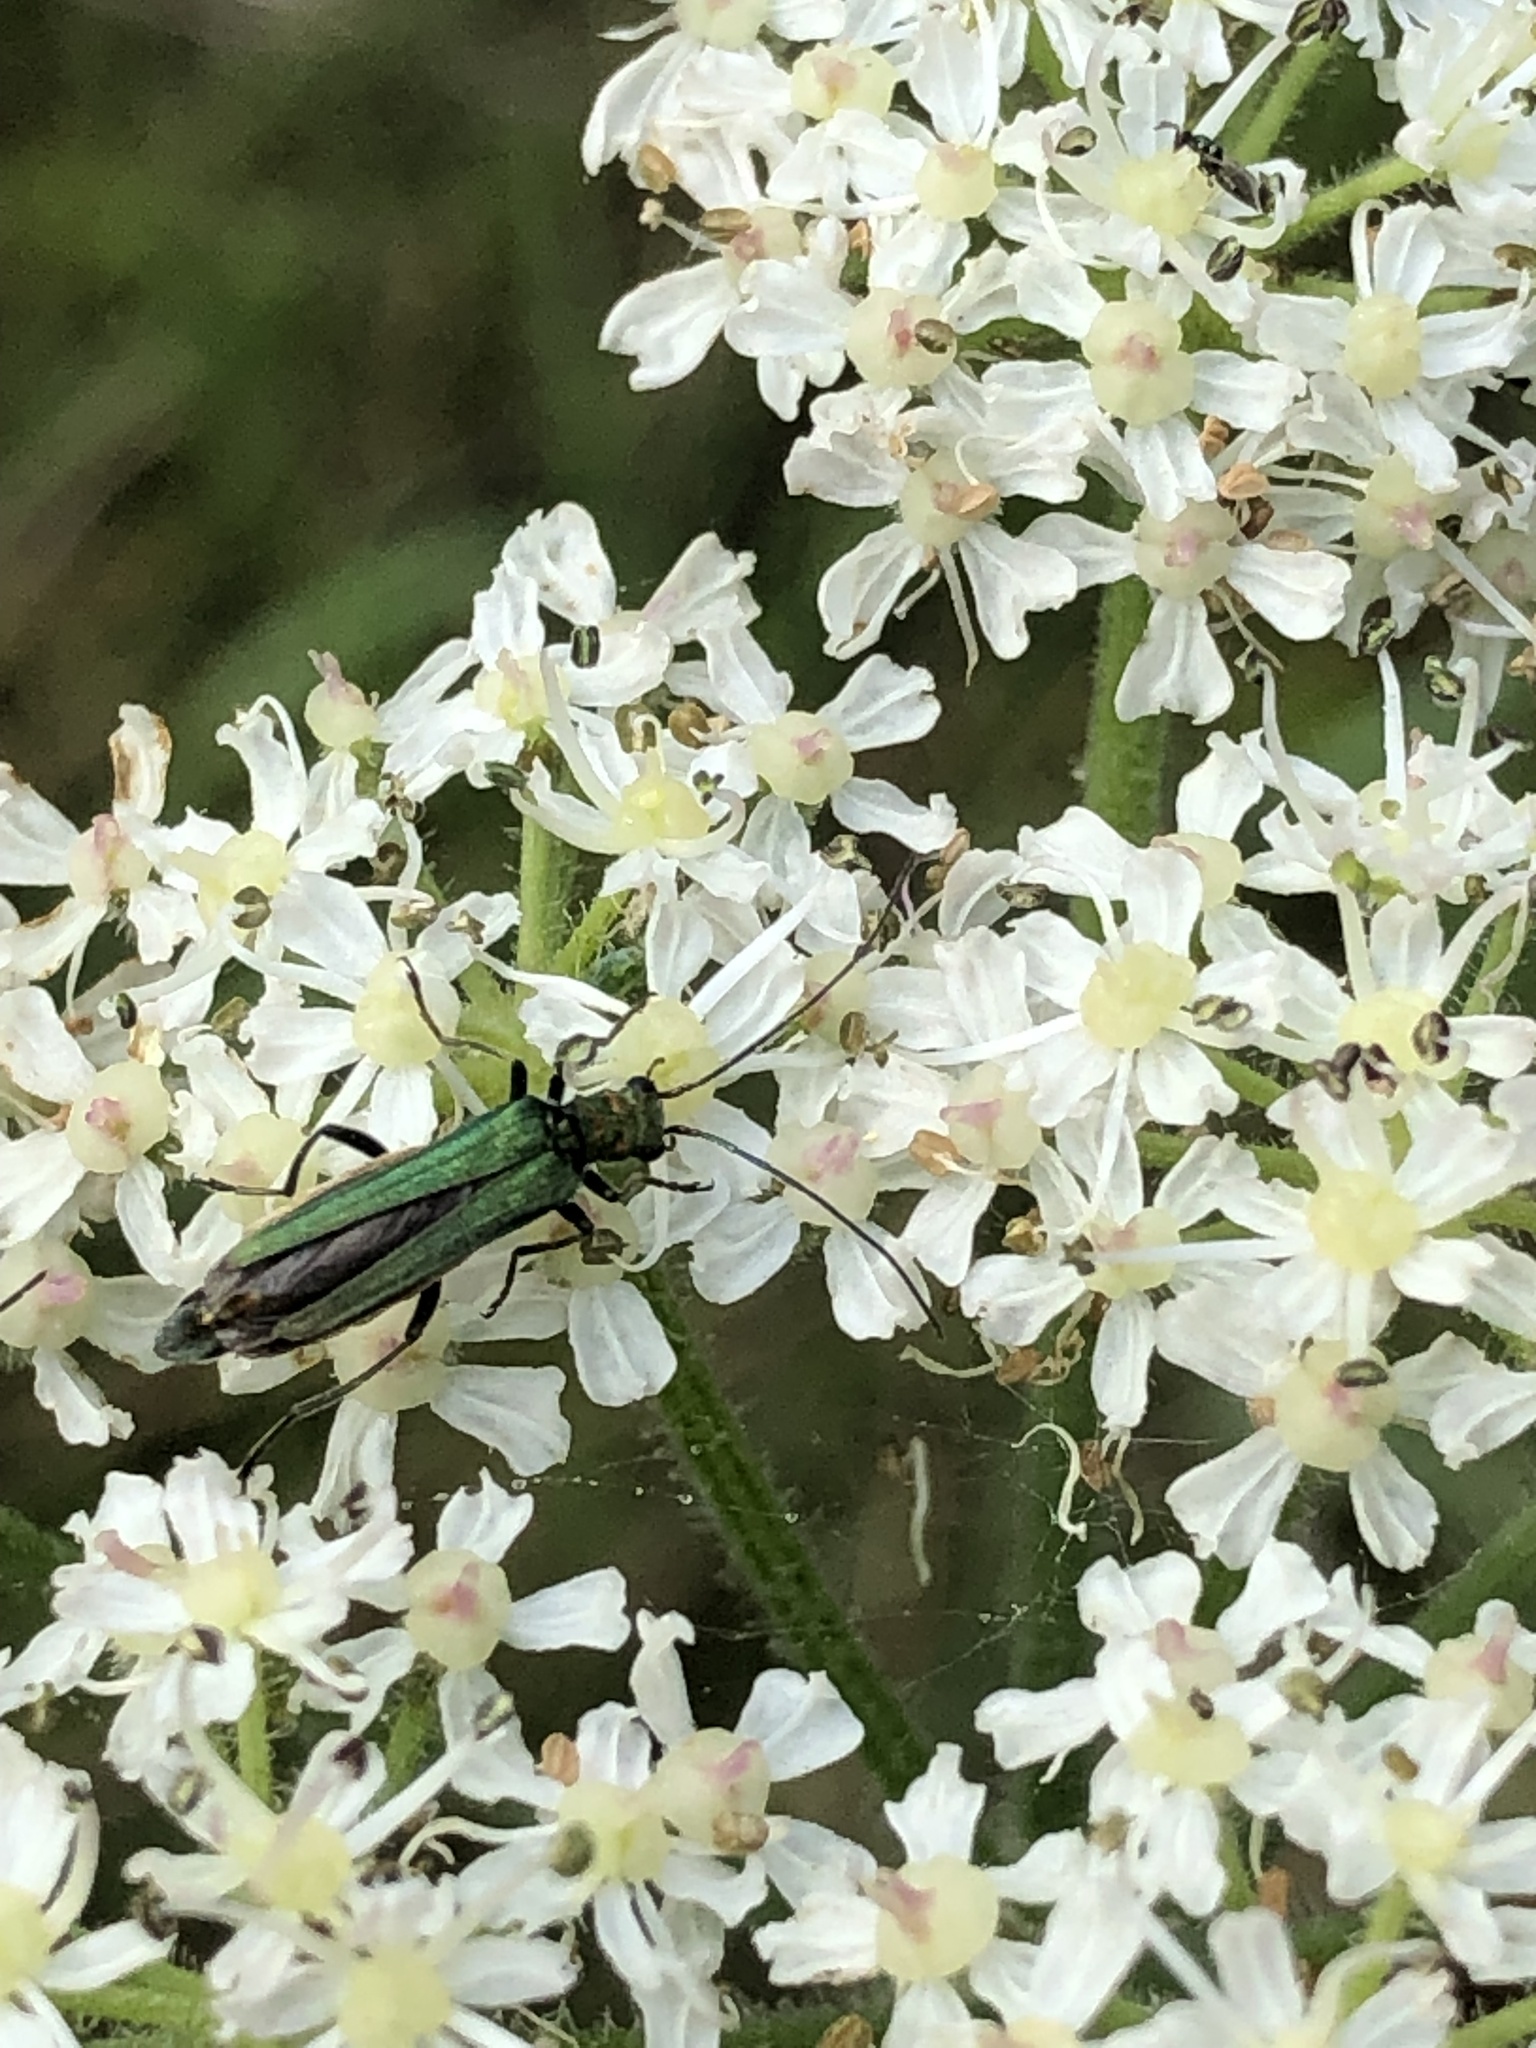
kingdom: Animalia
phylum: Arthropoda
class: Insecta
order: Coleoptera
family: Oedemeridae
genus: Oedemera
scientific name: Oedemera nobilis
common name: Swollen-thighed beetle
